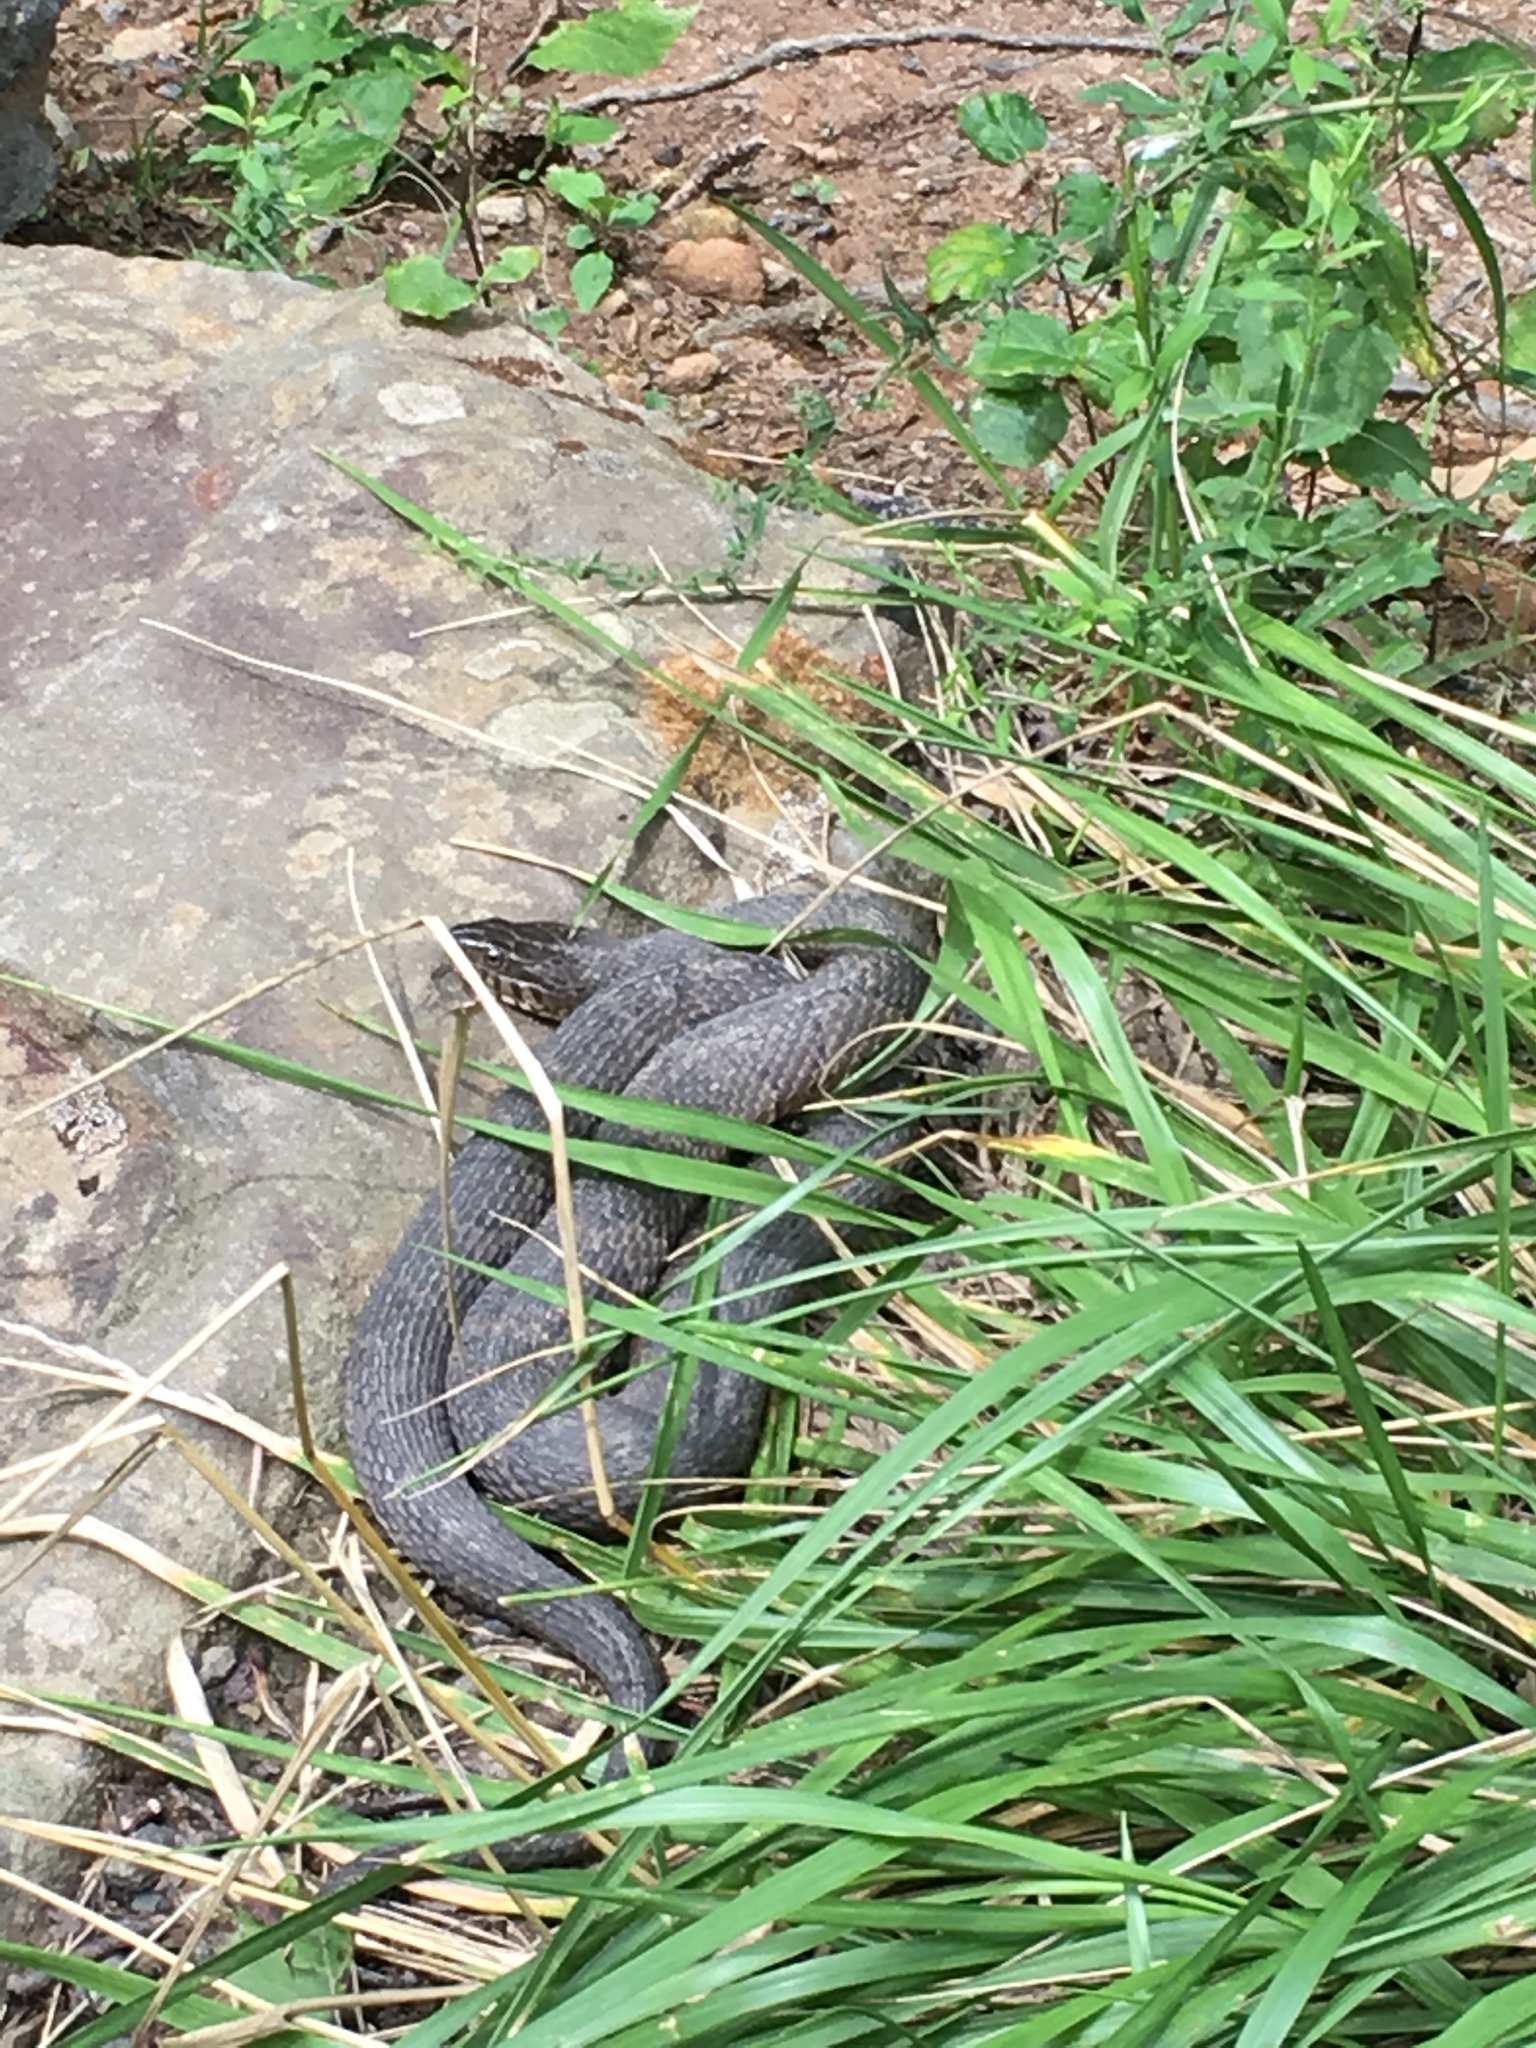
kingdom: Animalia
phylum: Chordata
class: Squamata
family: Colubridae
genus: Nerodia
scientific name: Nerodia sipedon
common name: Northern water snake
